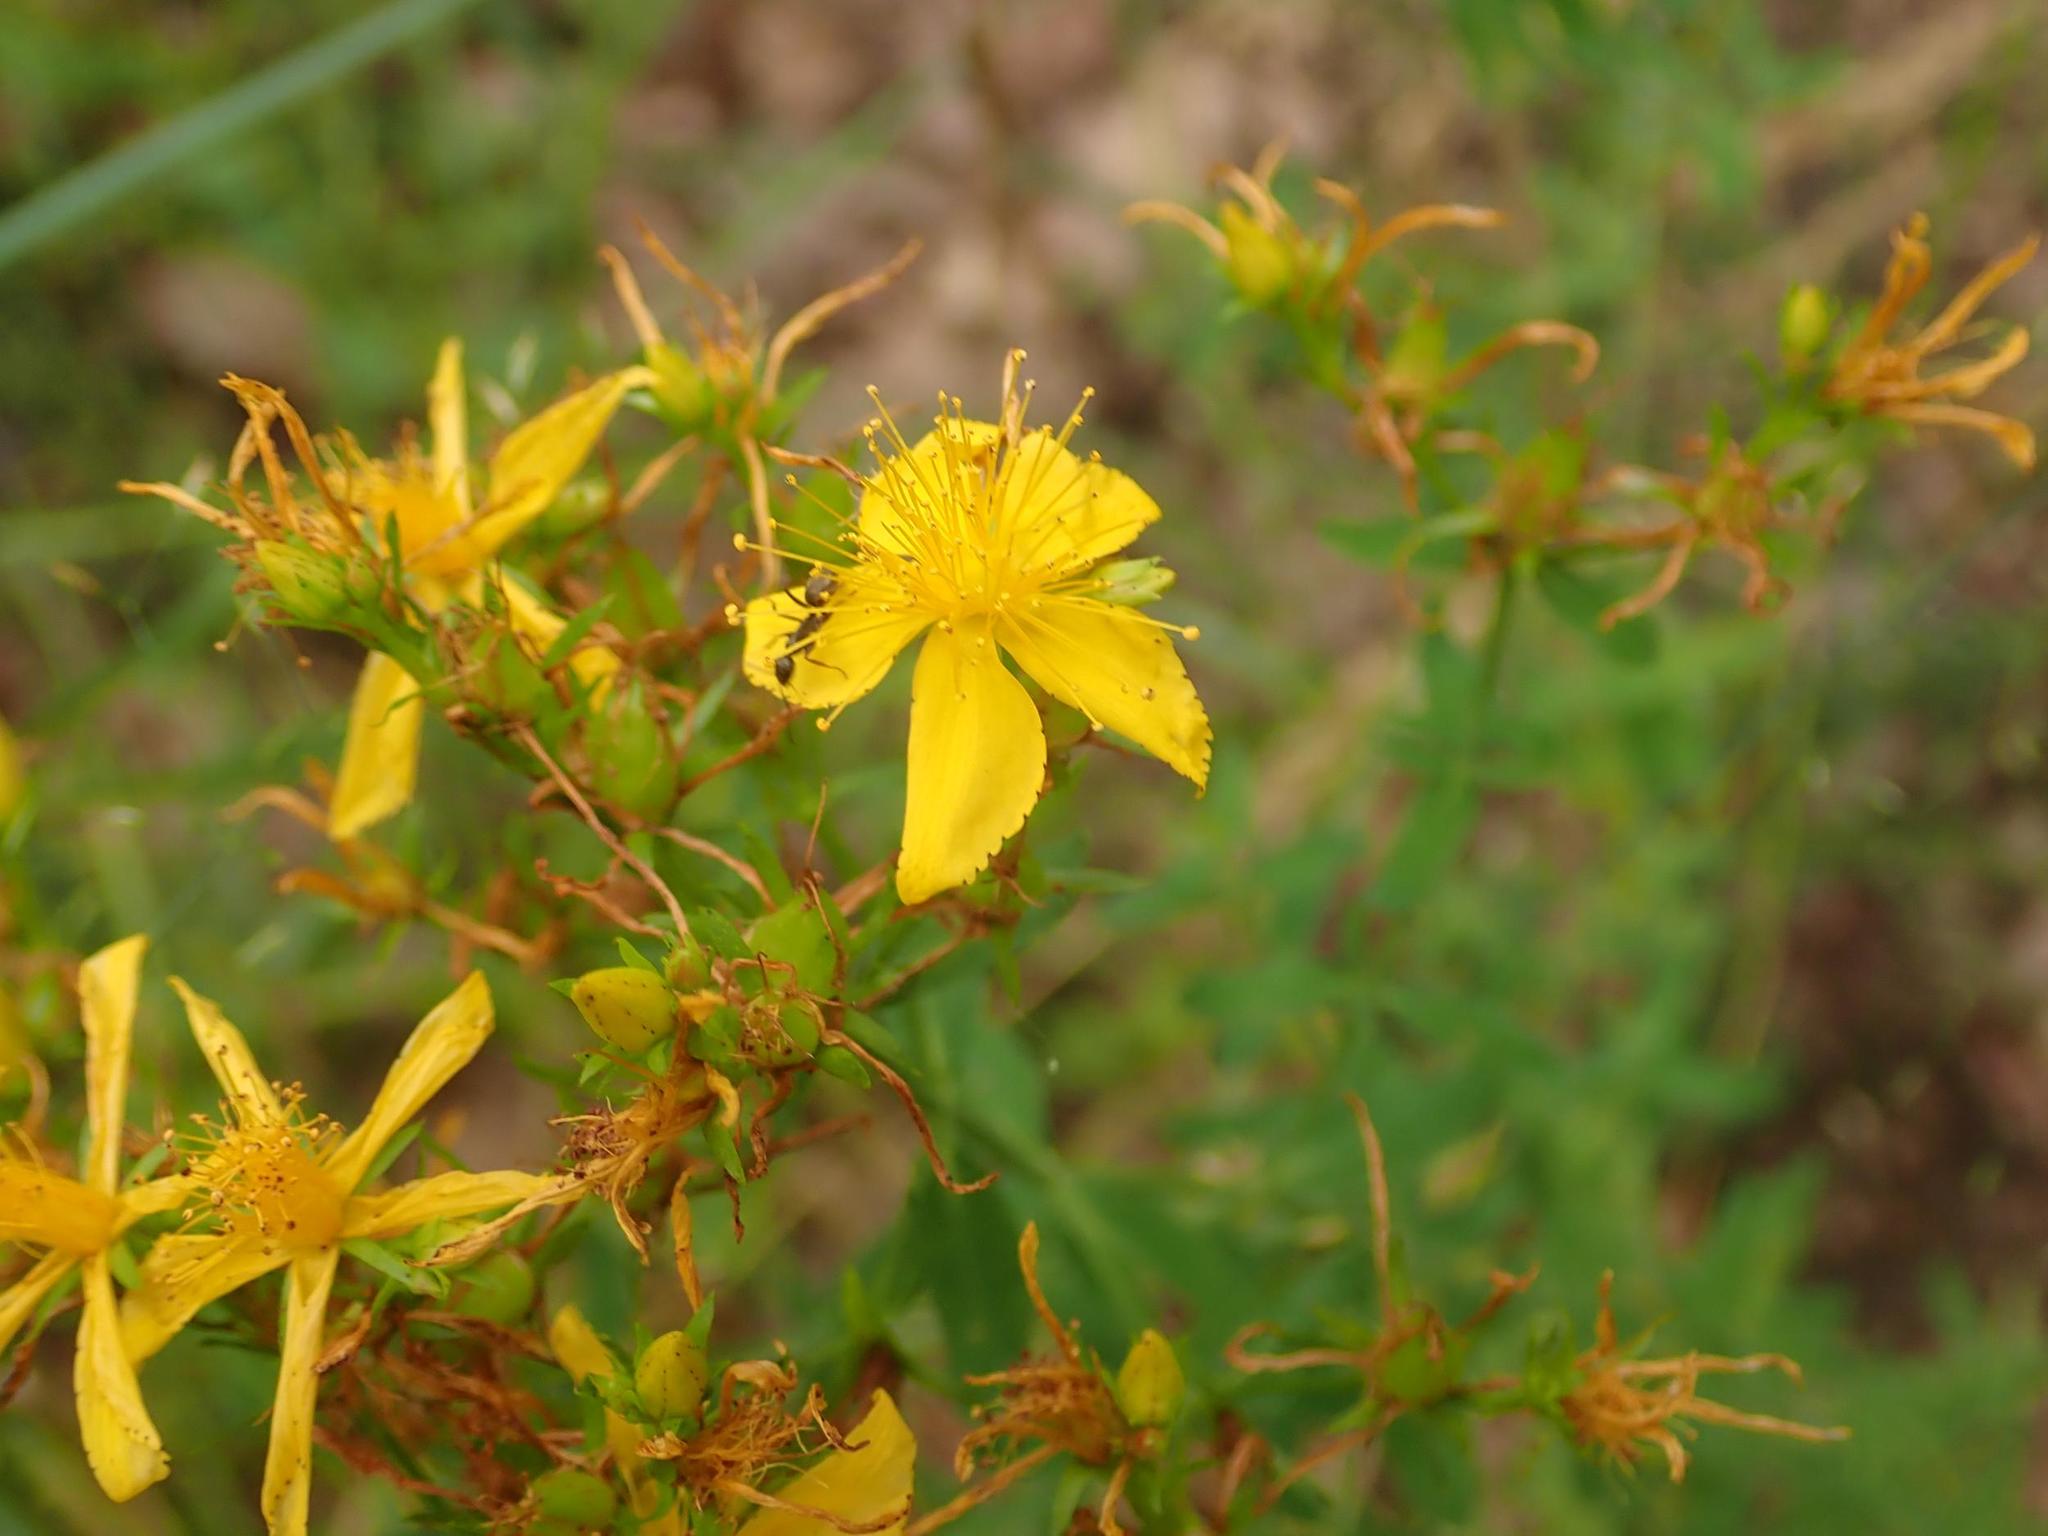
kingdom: Plantae
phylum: Tracheophyta
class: Magnoliopsida
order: Malpighiales
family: Hypericaceae
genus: Hypericum
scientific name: Hypericum perforatum
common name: Common st. johnswort
